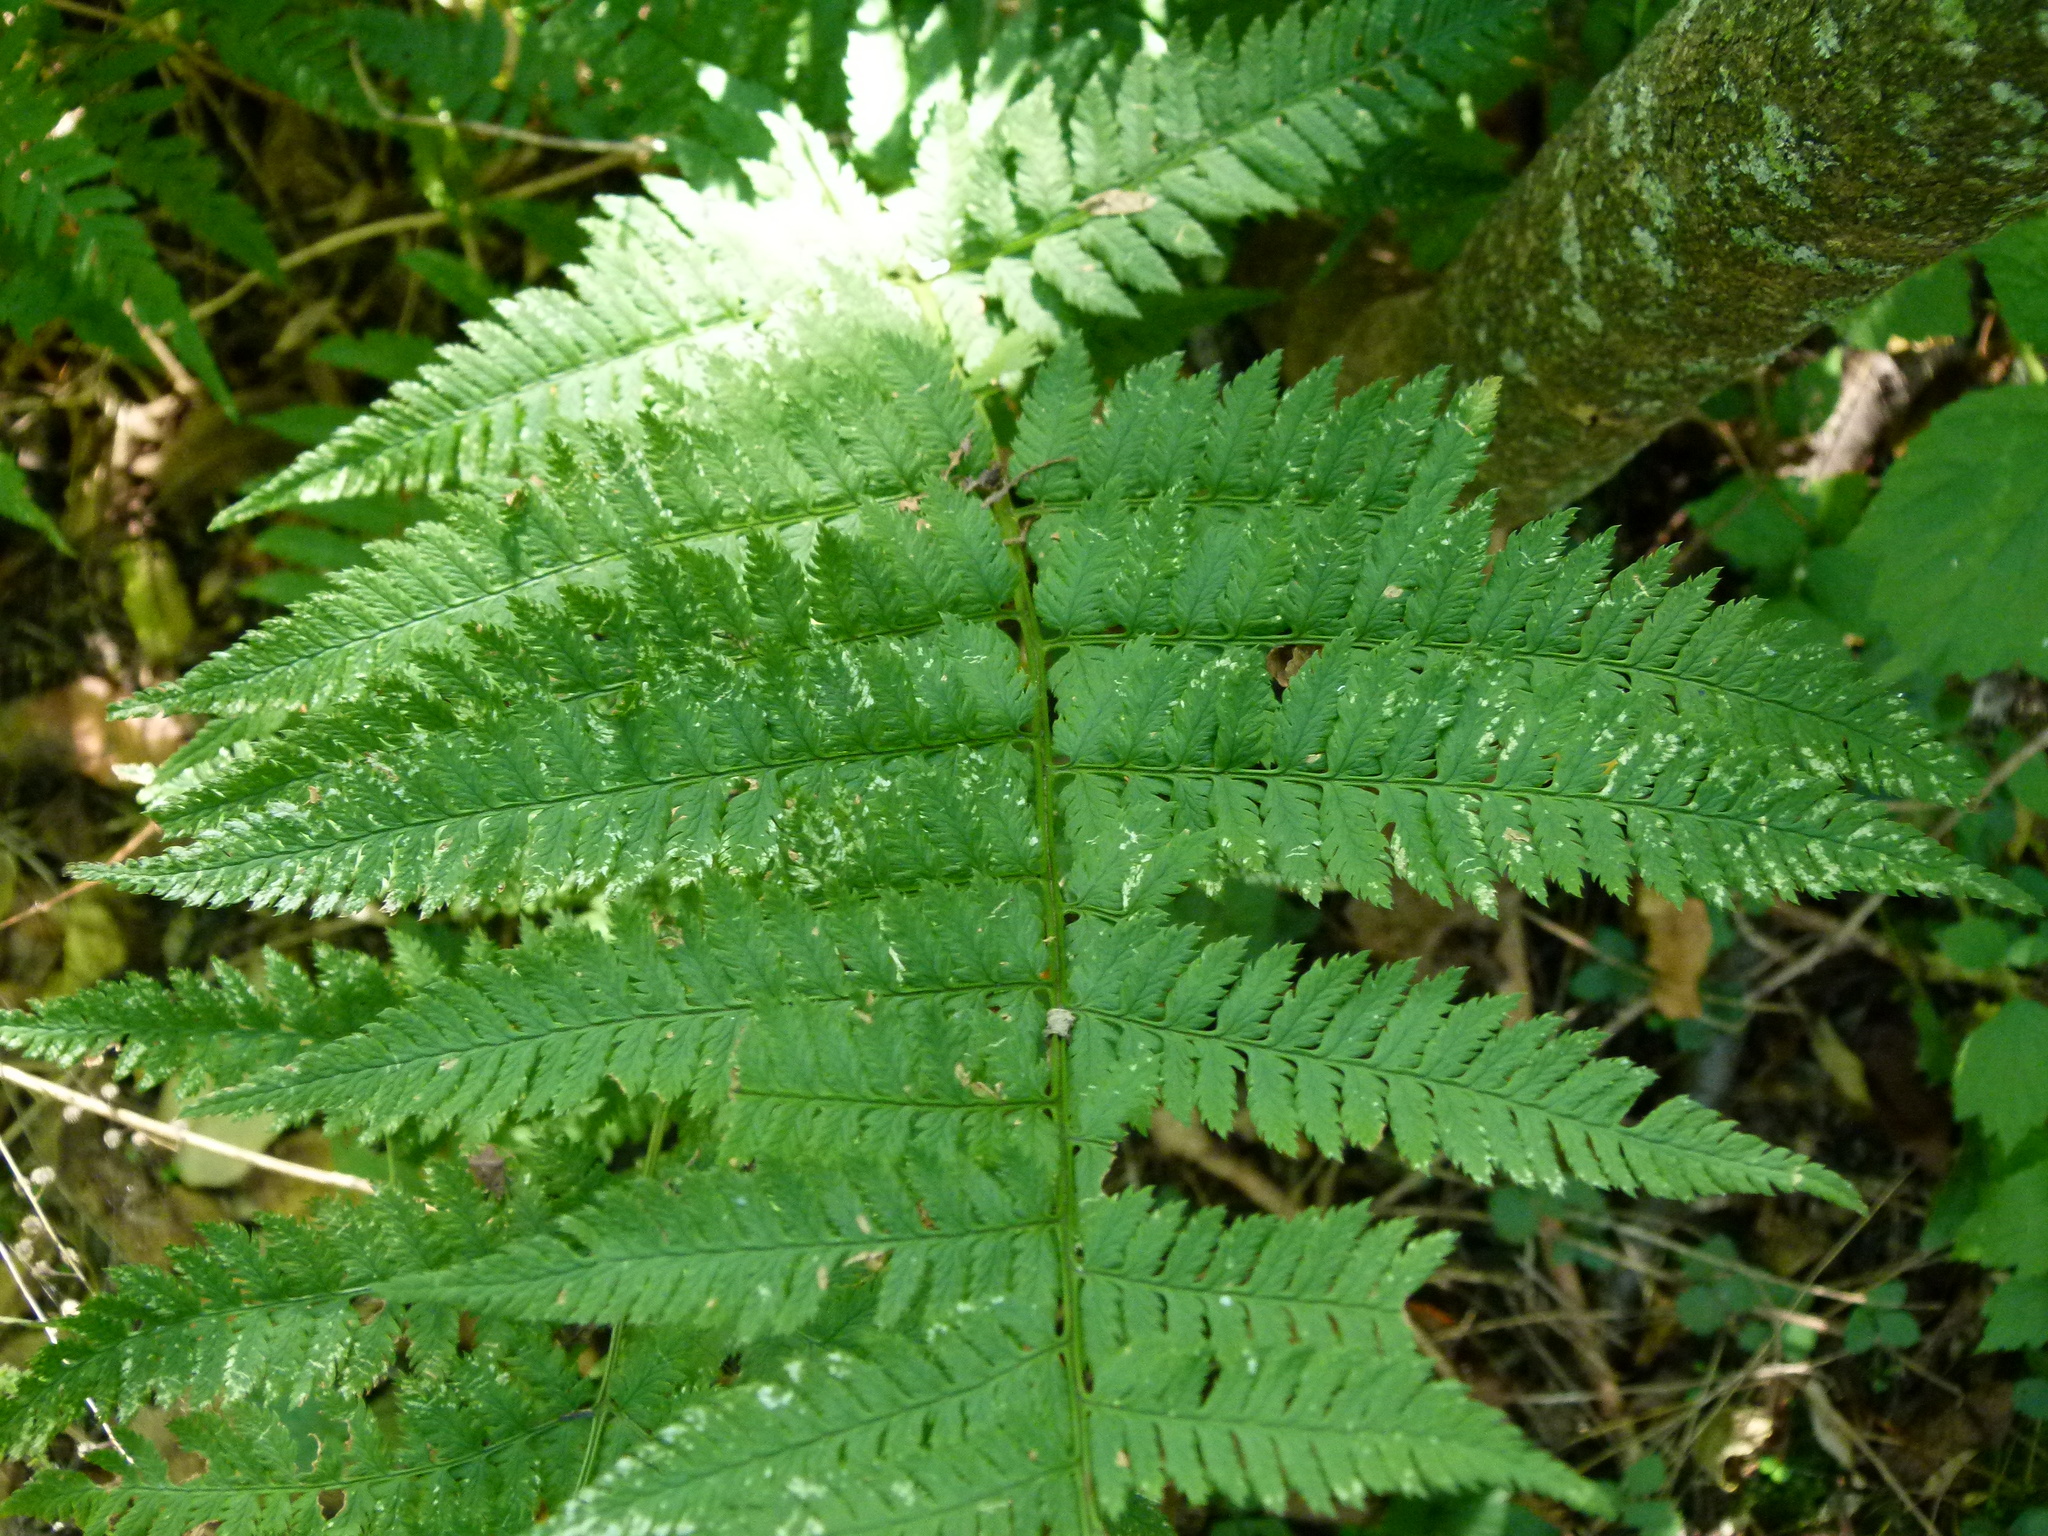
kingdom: Plantae
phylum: Tracheophyta
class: Polypodiopsida
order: Polypodiales
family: Dryopteridaceae
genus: Dryopteris
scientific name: Dryopteris carthusiana
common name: Narrow buckler-fern
